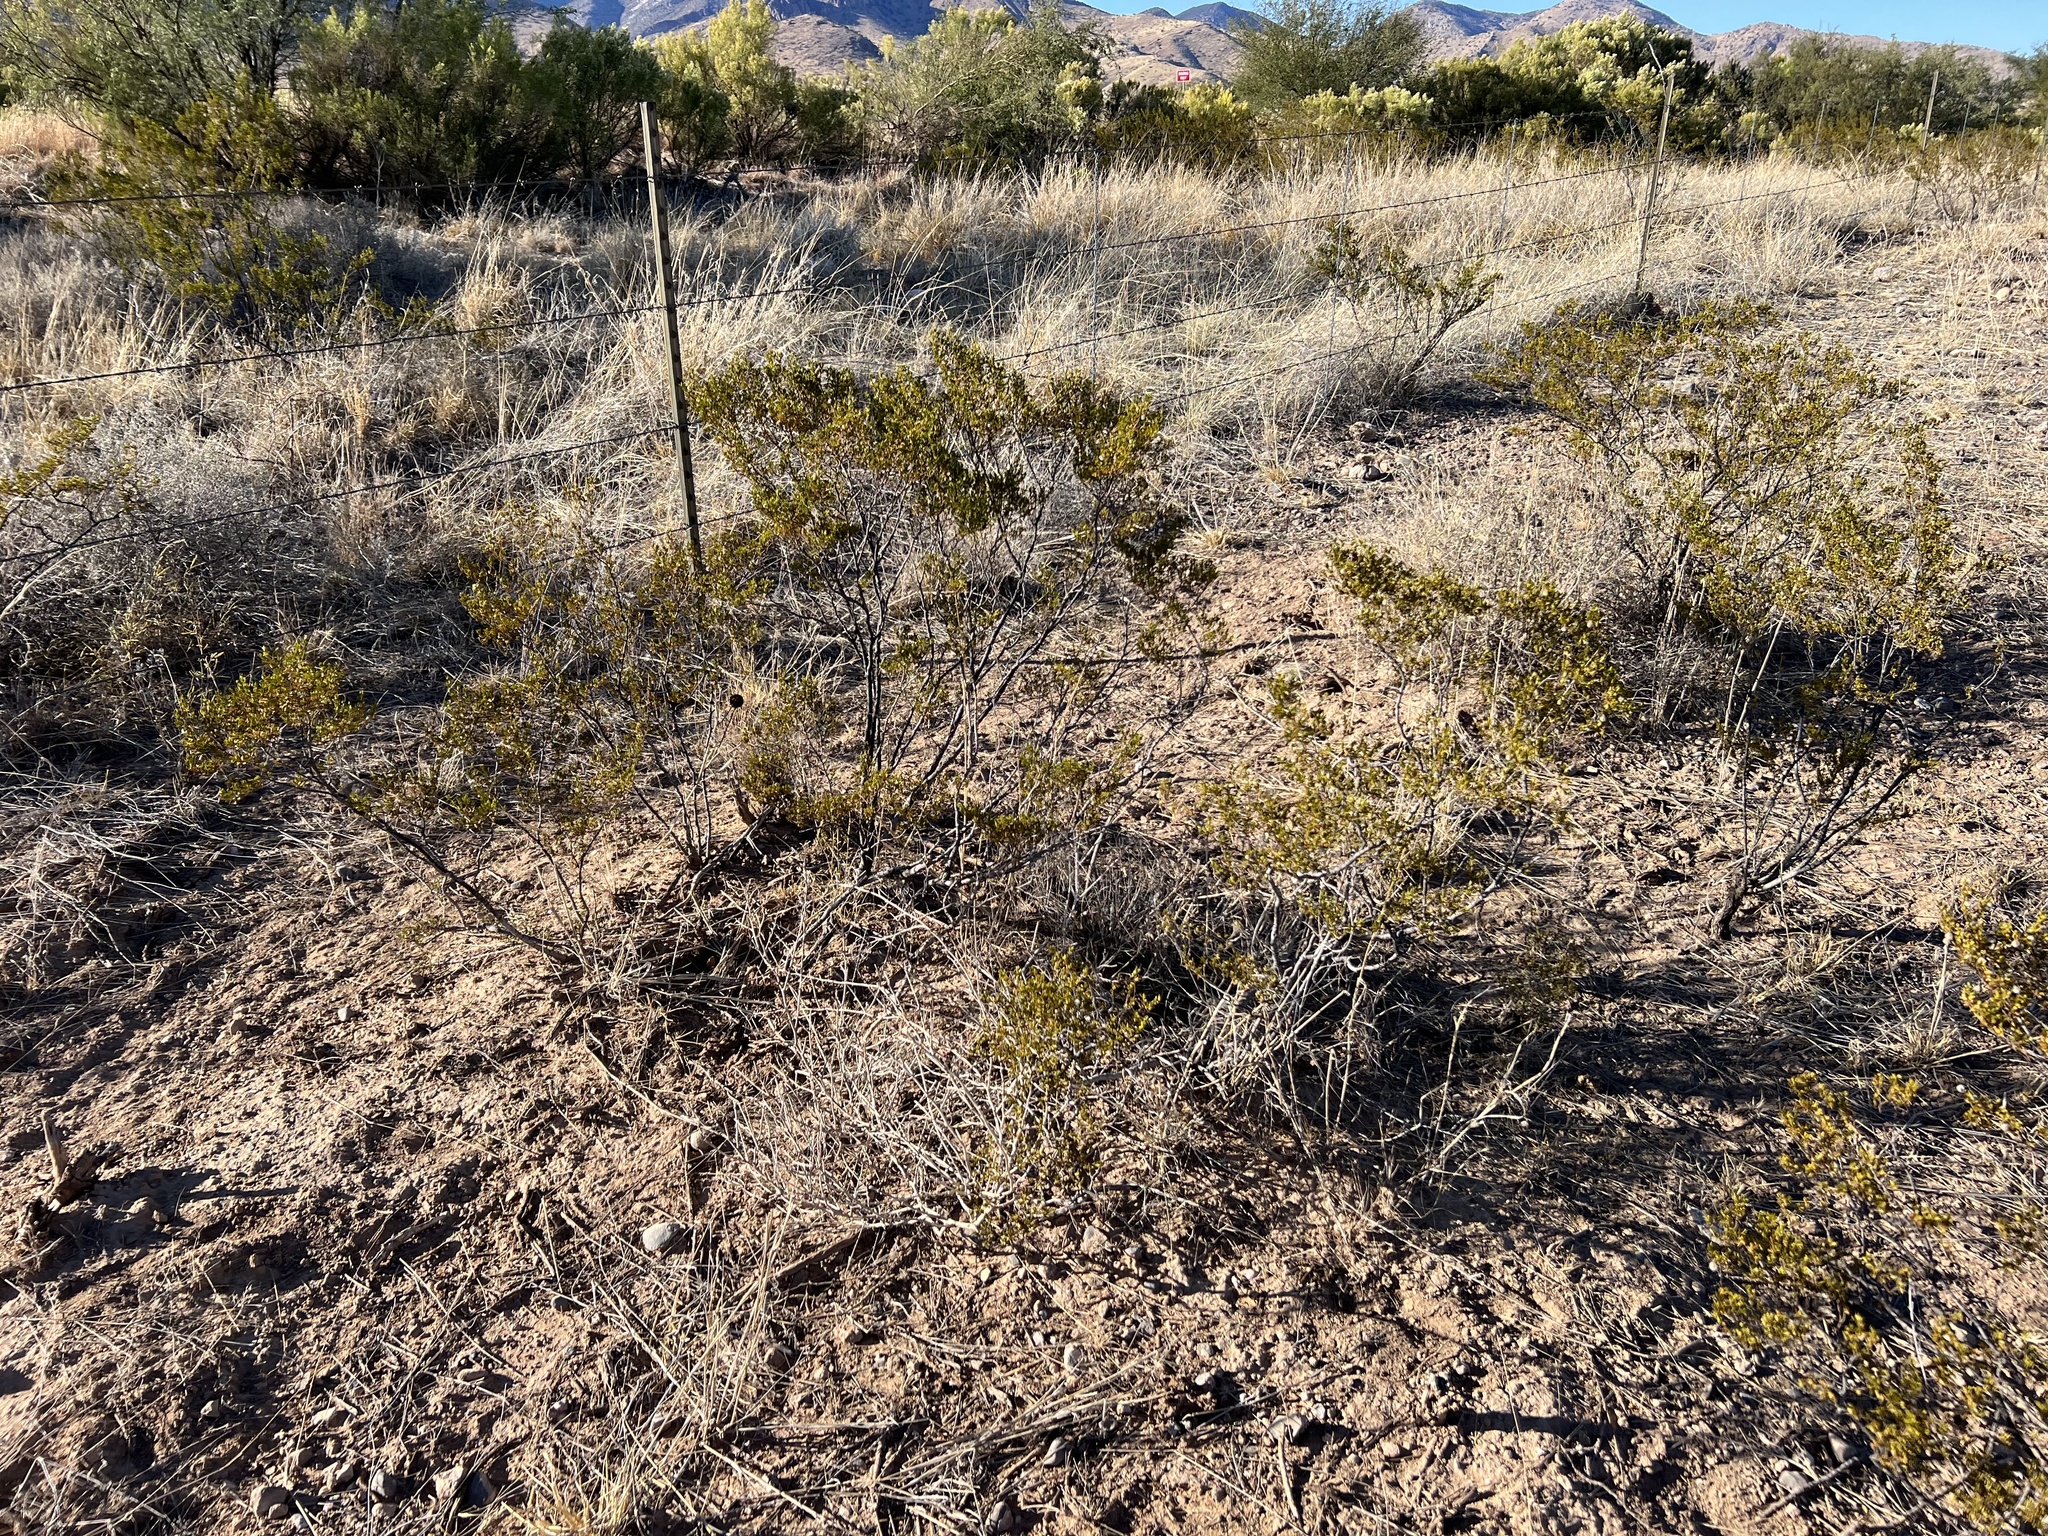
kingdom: Plantae
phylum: Tracheophyta
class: Magnoliopsida
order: Zygophyllales
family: Zygophyllaceae
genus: Larrea
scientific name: Larrea tridentata
